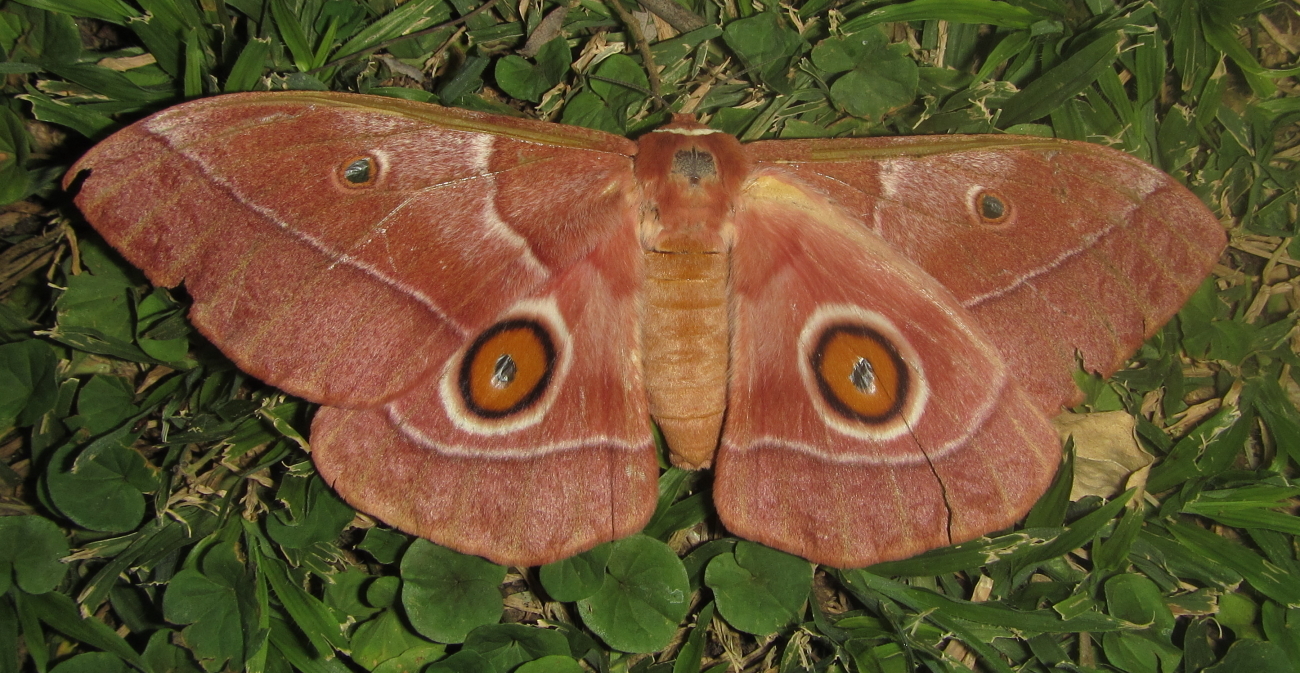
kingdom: Animalia
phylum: Arthropoda
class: Insecta
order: Lepidoptera
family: Saturniidae
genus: Gonimbrasia
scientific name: Gonimbrasia belina
